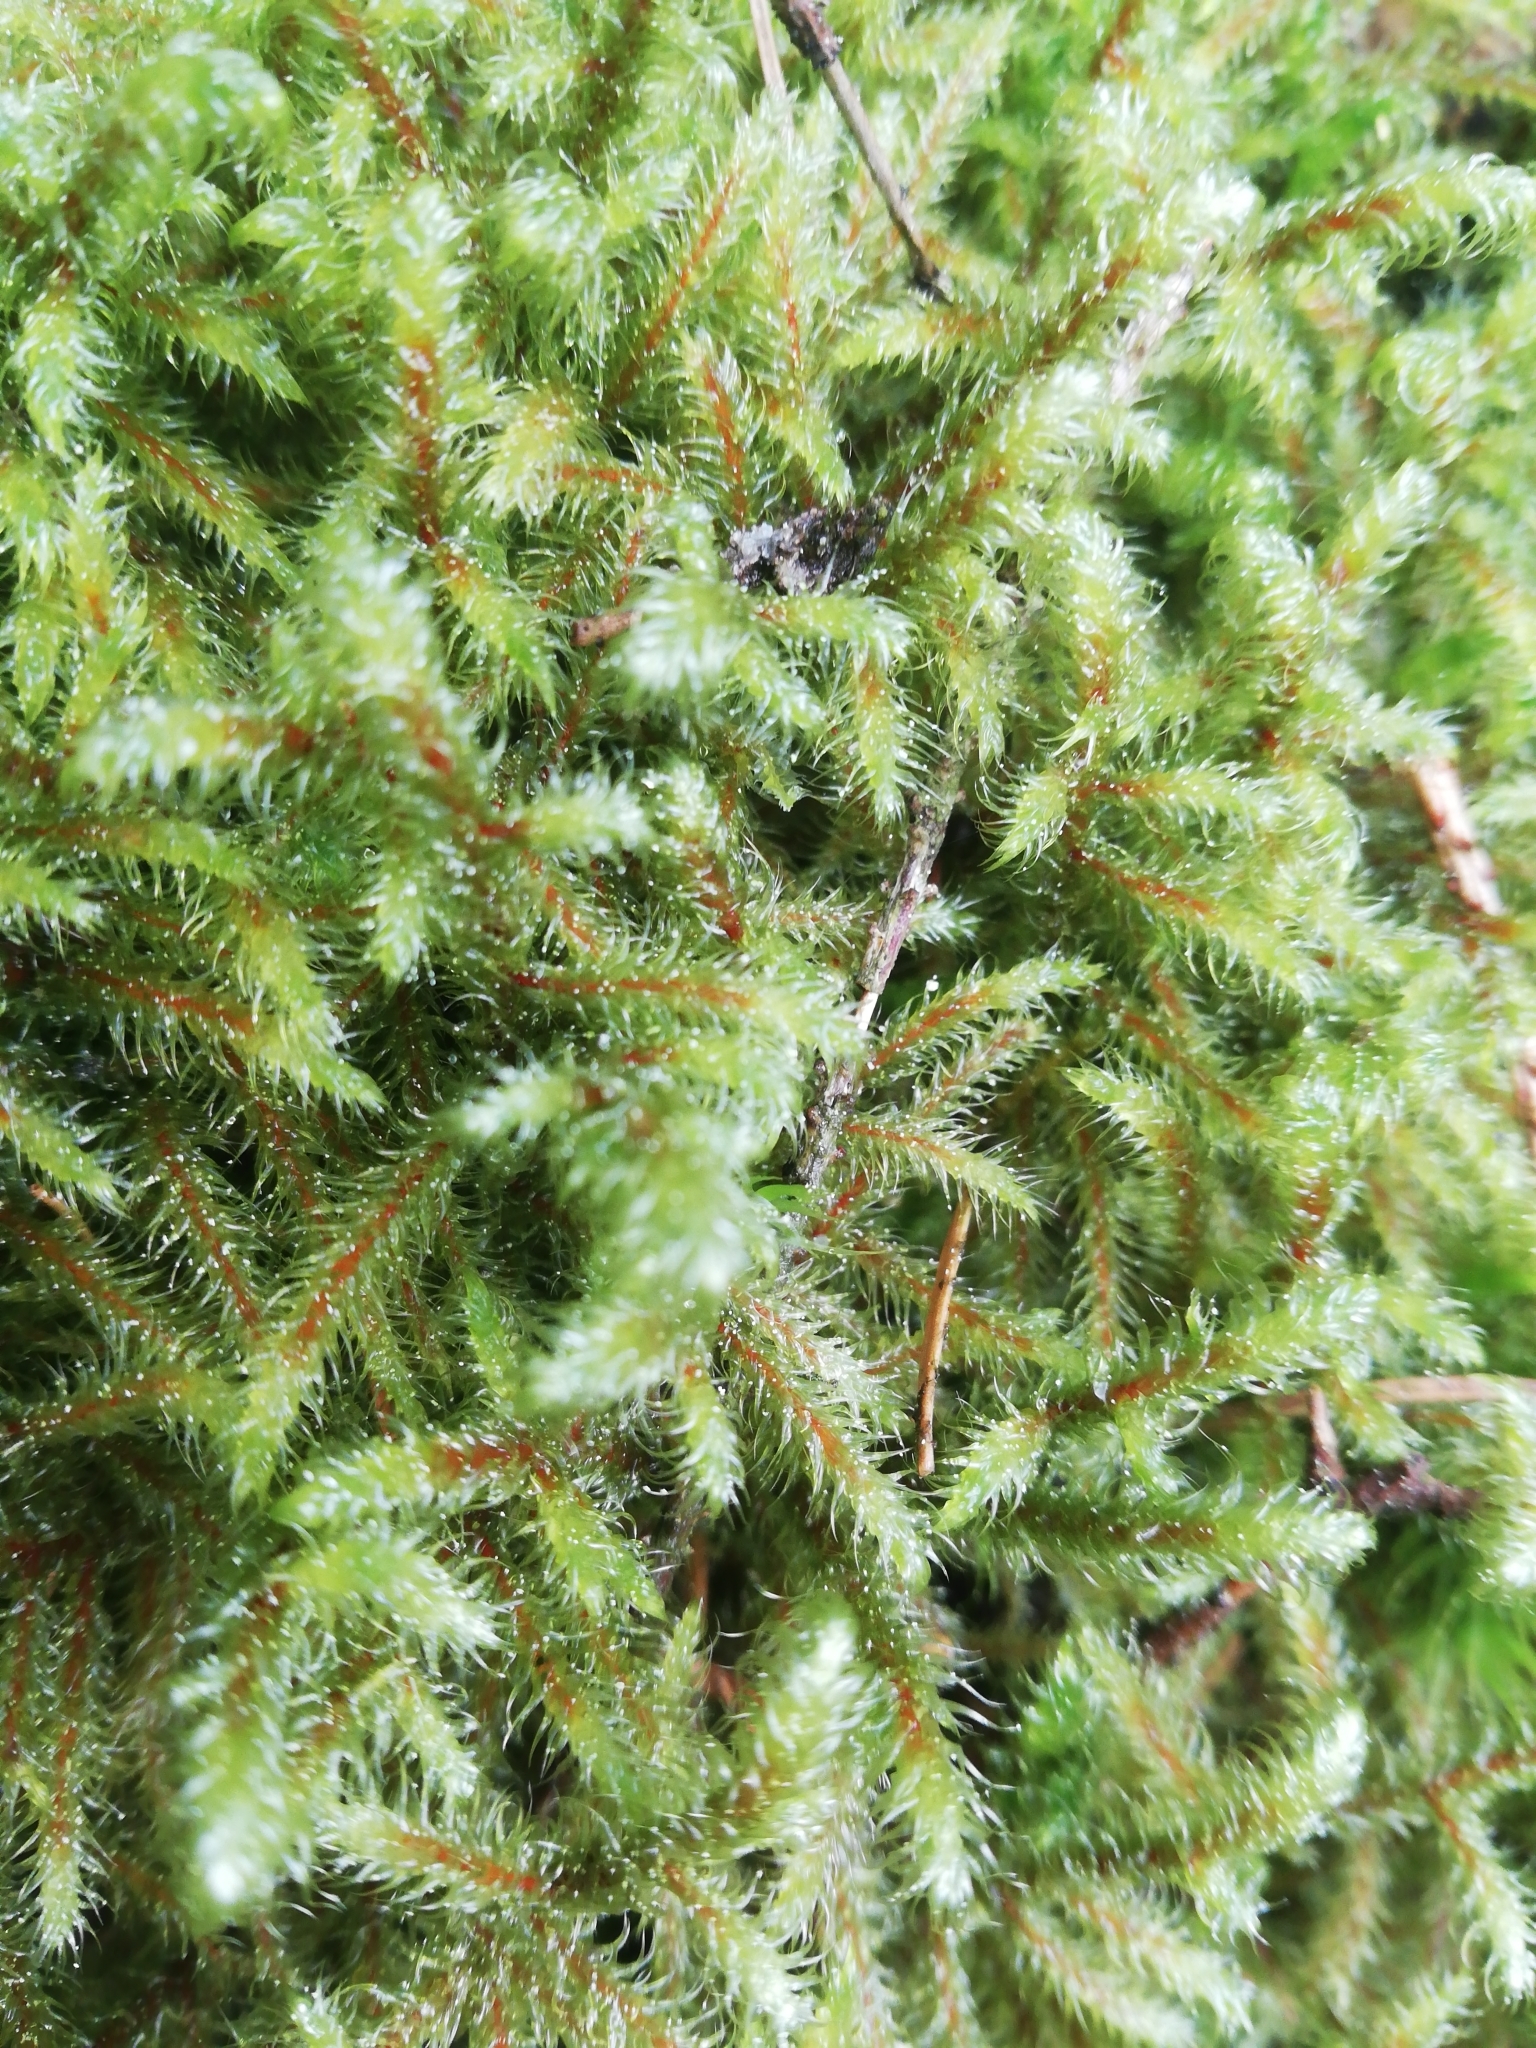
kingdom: Plantae
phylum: Bryophyta
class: Bryopsida
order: Hypnales
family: Hylocomiaceae
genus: Rhytidiadelphus
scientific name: Rhytidiadelphus loreus
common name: Lanky moss
